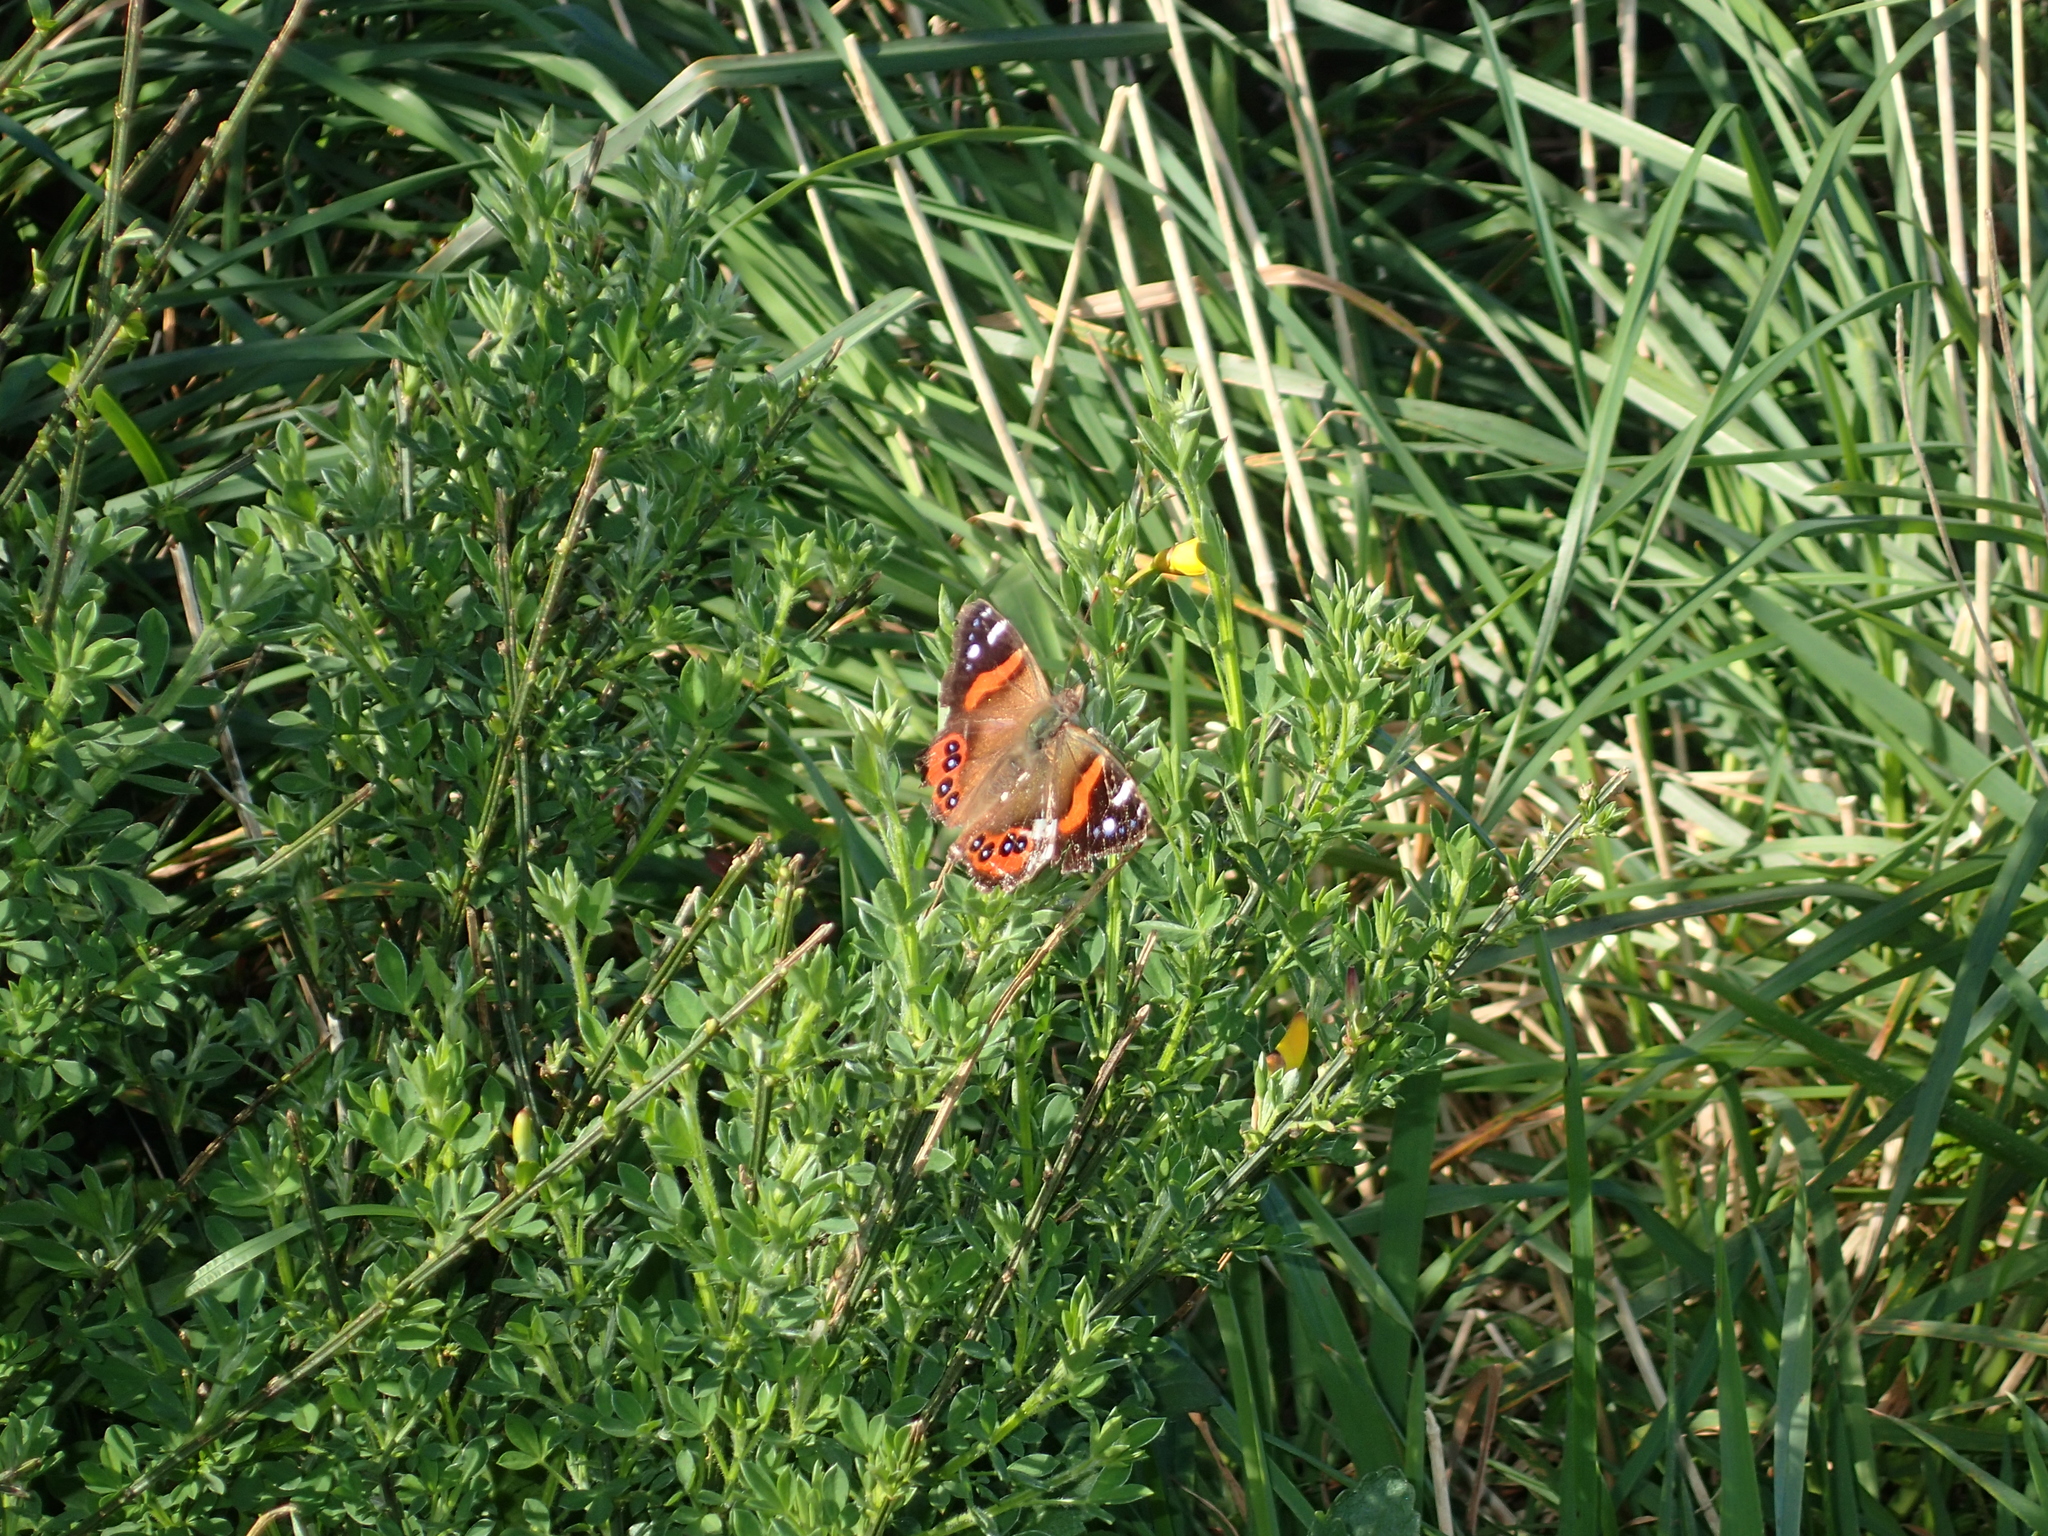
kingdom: Animalia
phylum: Arthropoda
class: Insecta
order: Lepidoptera
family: Nymphalidae
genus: Vanessa
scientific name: Vanessa gonerilla
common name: New zealand red admiral
